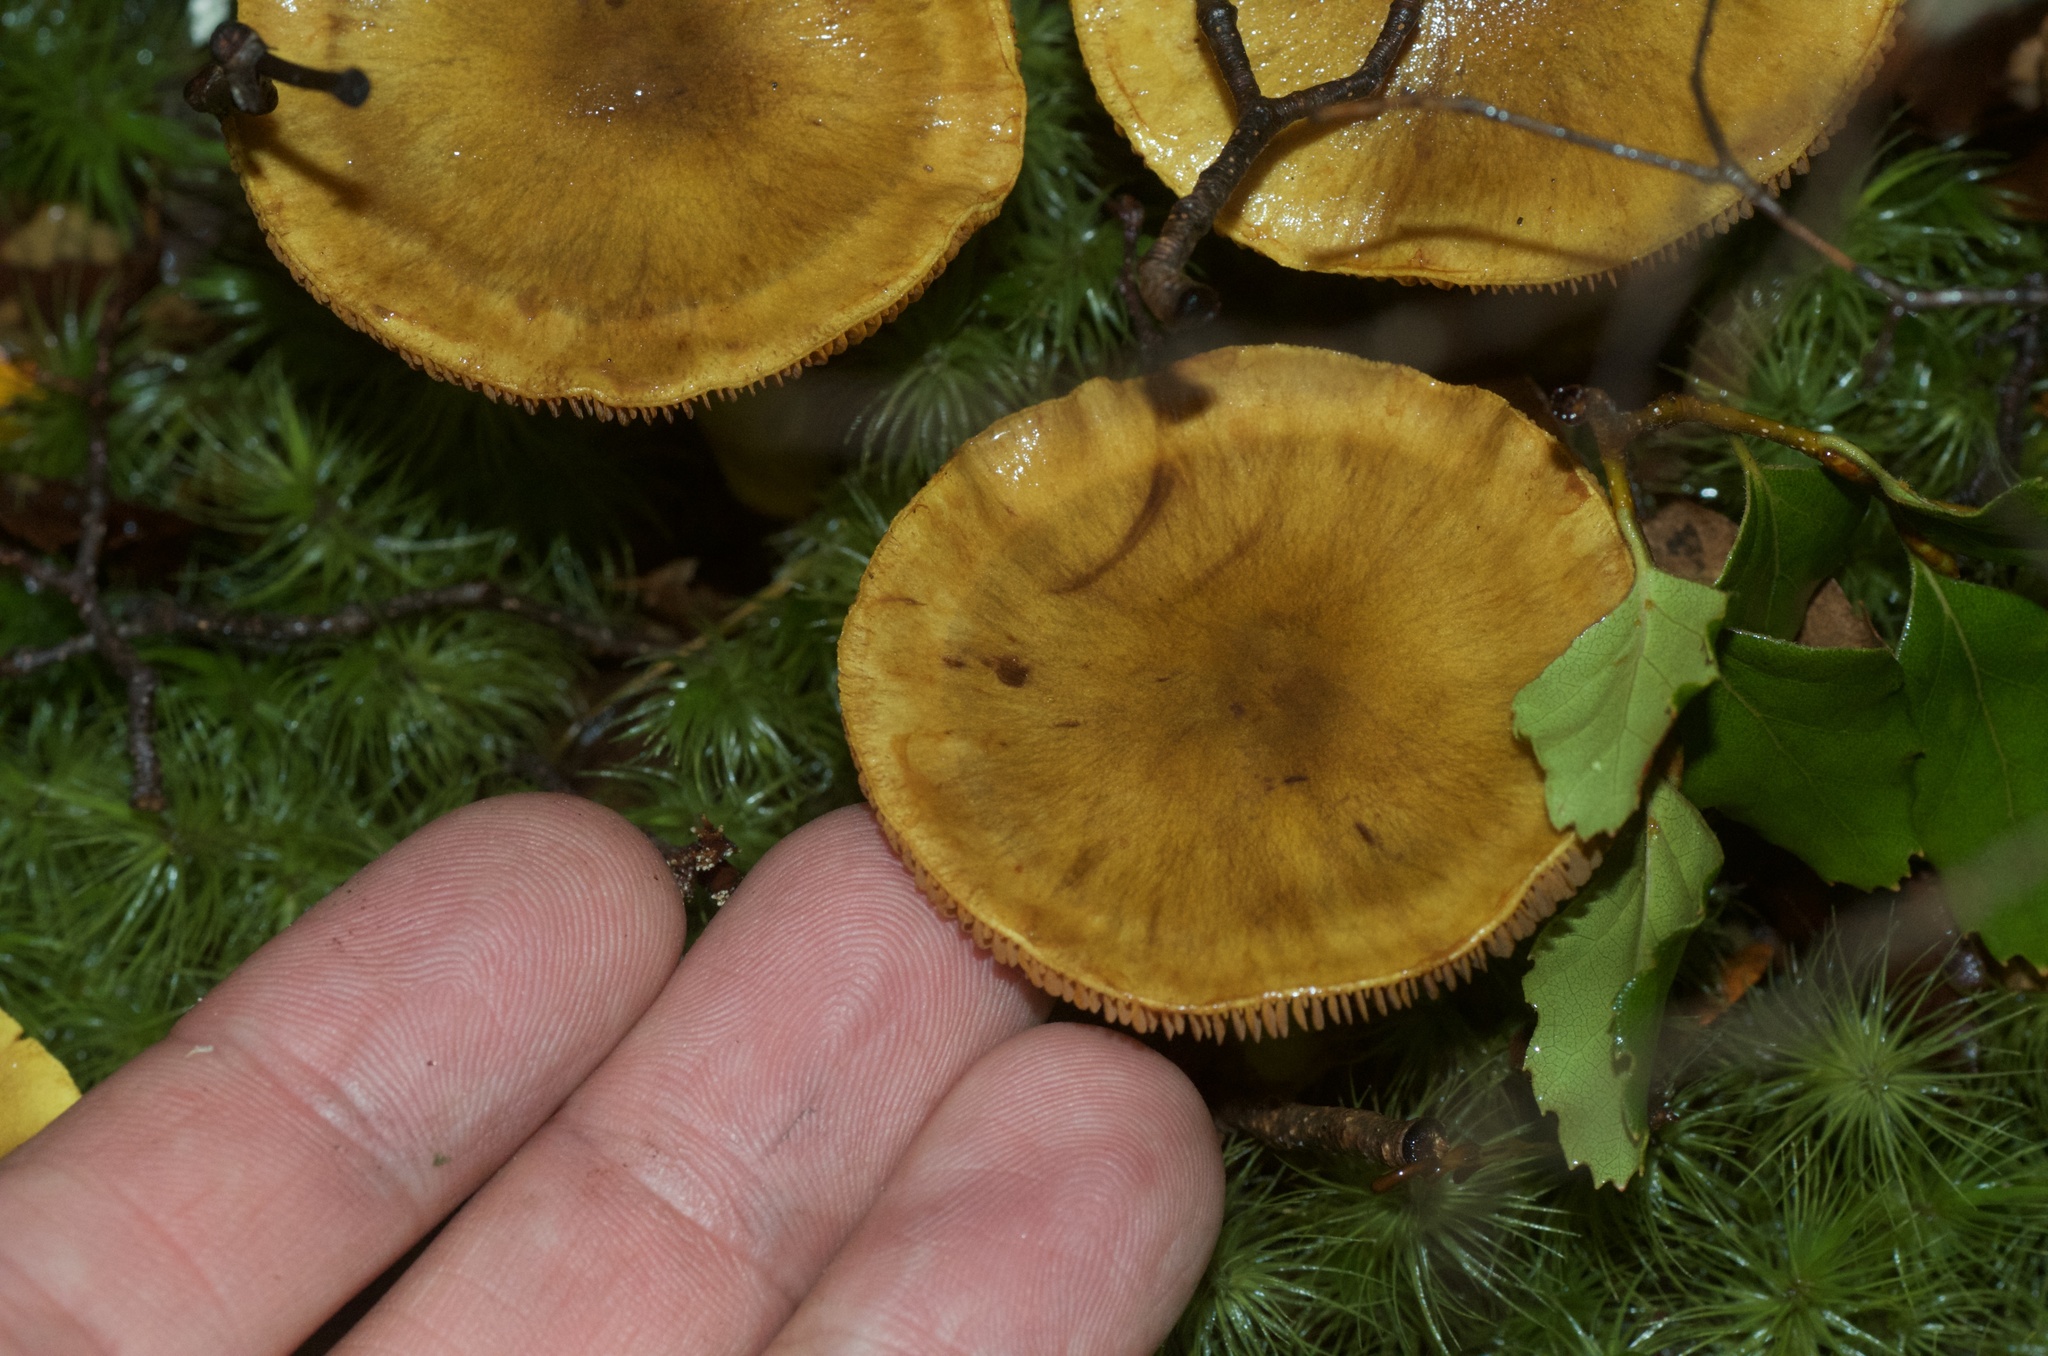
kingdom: Fungi
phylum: Basidiomycota
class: Agaricomycetes
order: Agaricales
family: Cortinariaceae
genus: Cortinarius
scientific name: Cortinarius canarius
